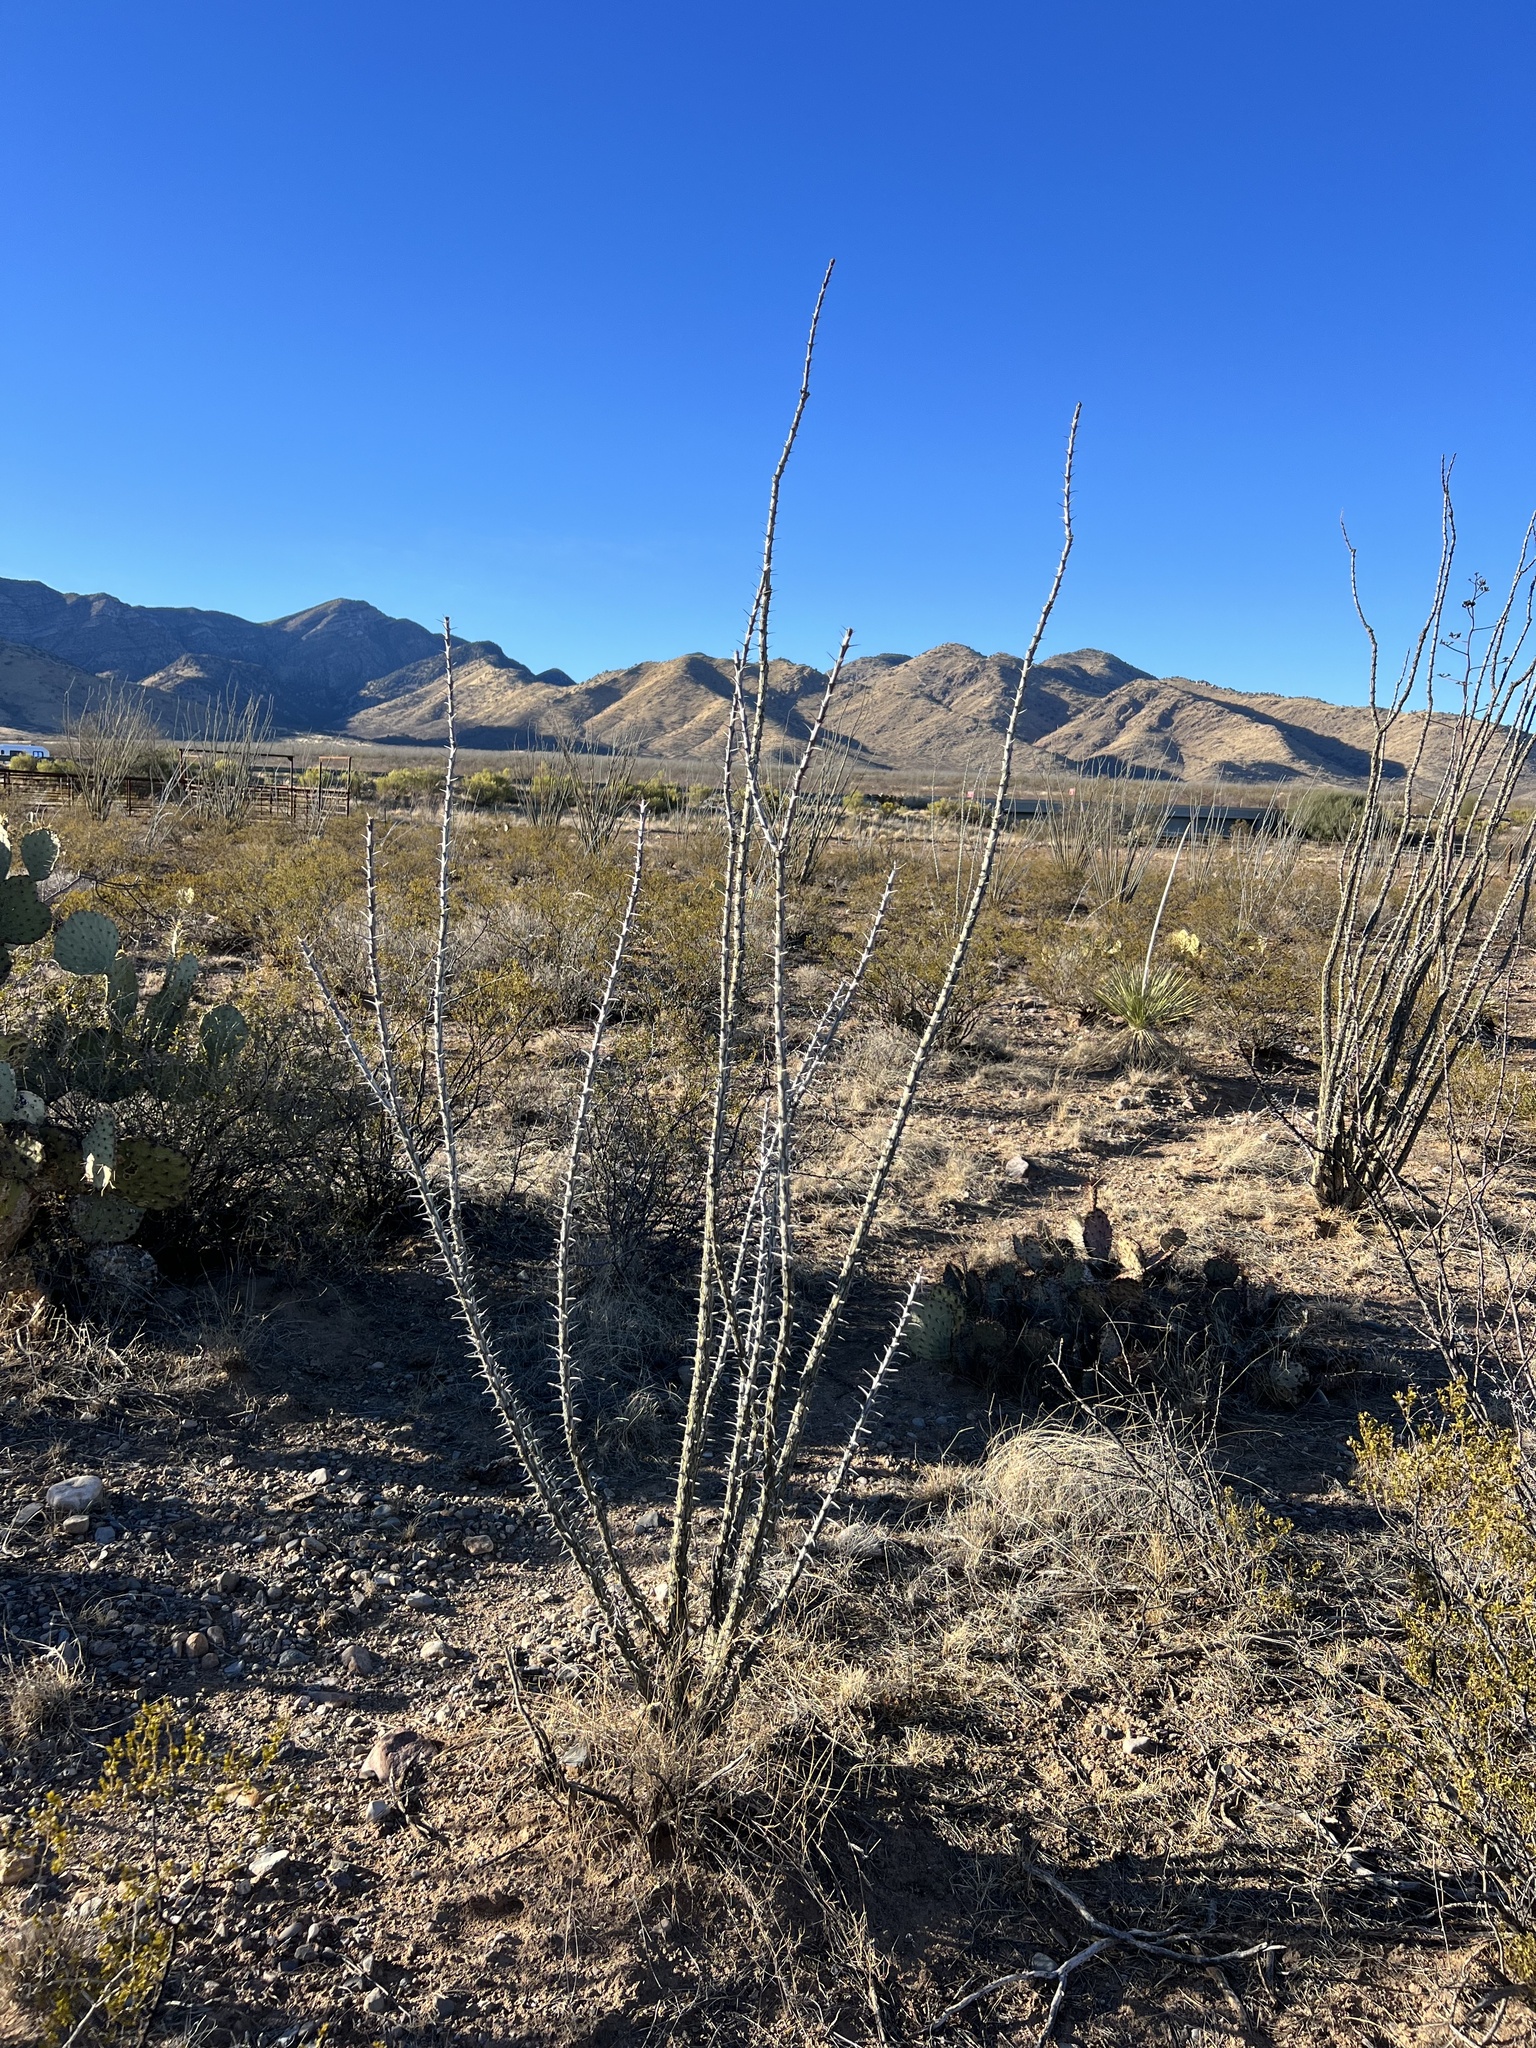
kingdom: Plantae
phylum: Tracheophyta
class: Magnoliopsida
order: Ericales
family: Fouquieriaceae
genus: Fouquieria
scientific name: Fouquieria splendens
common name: Vine-cactus
